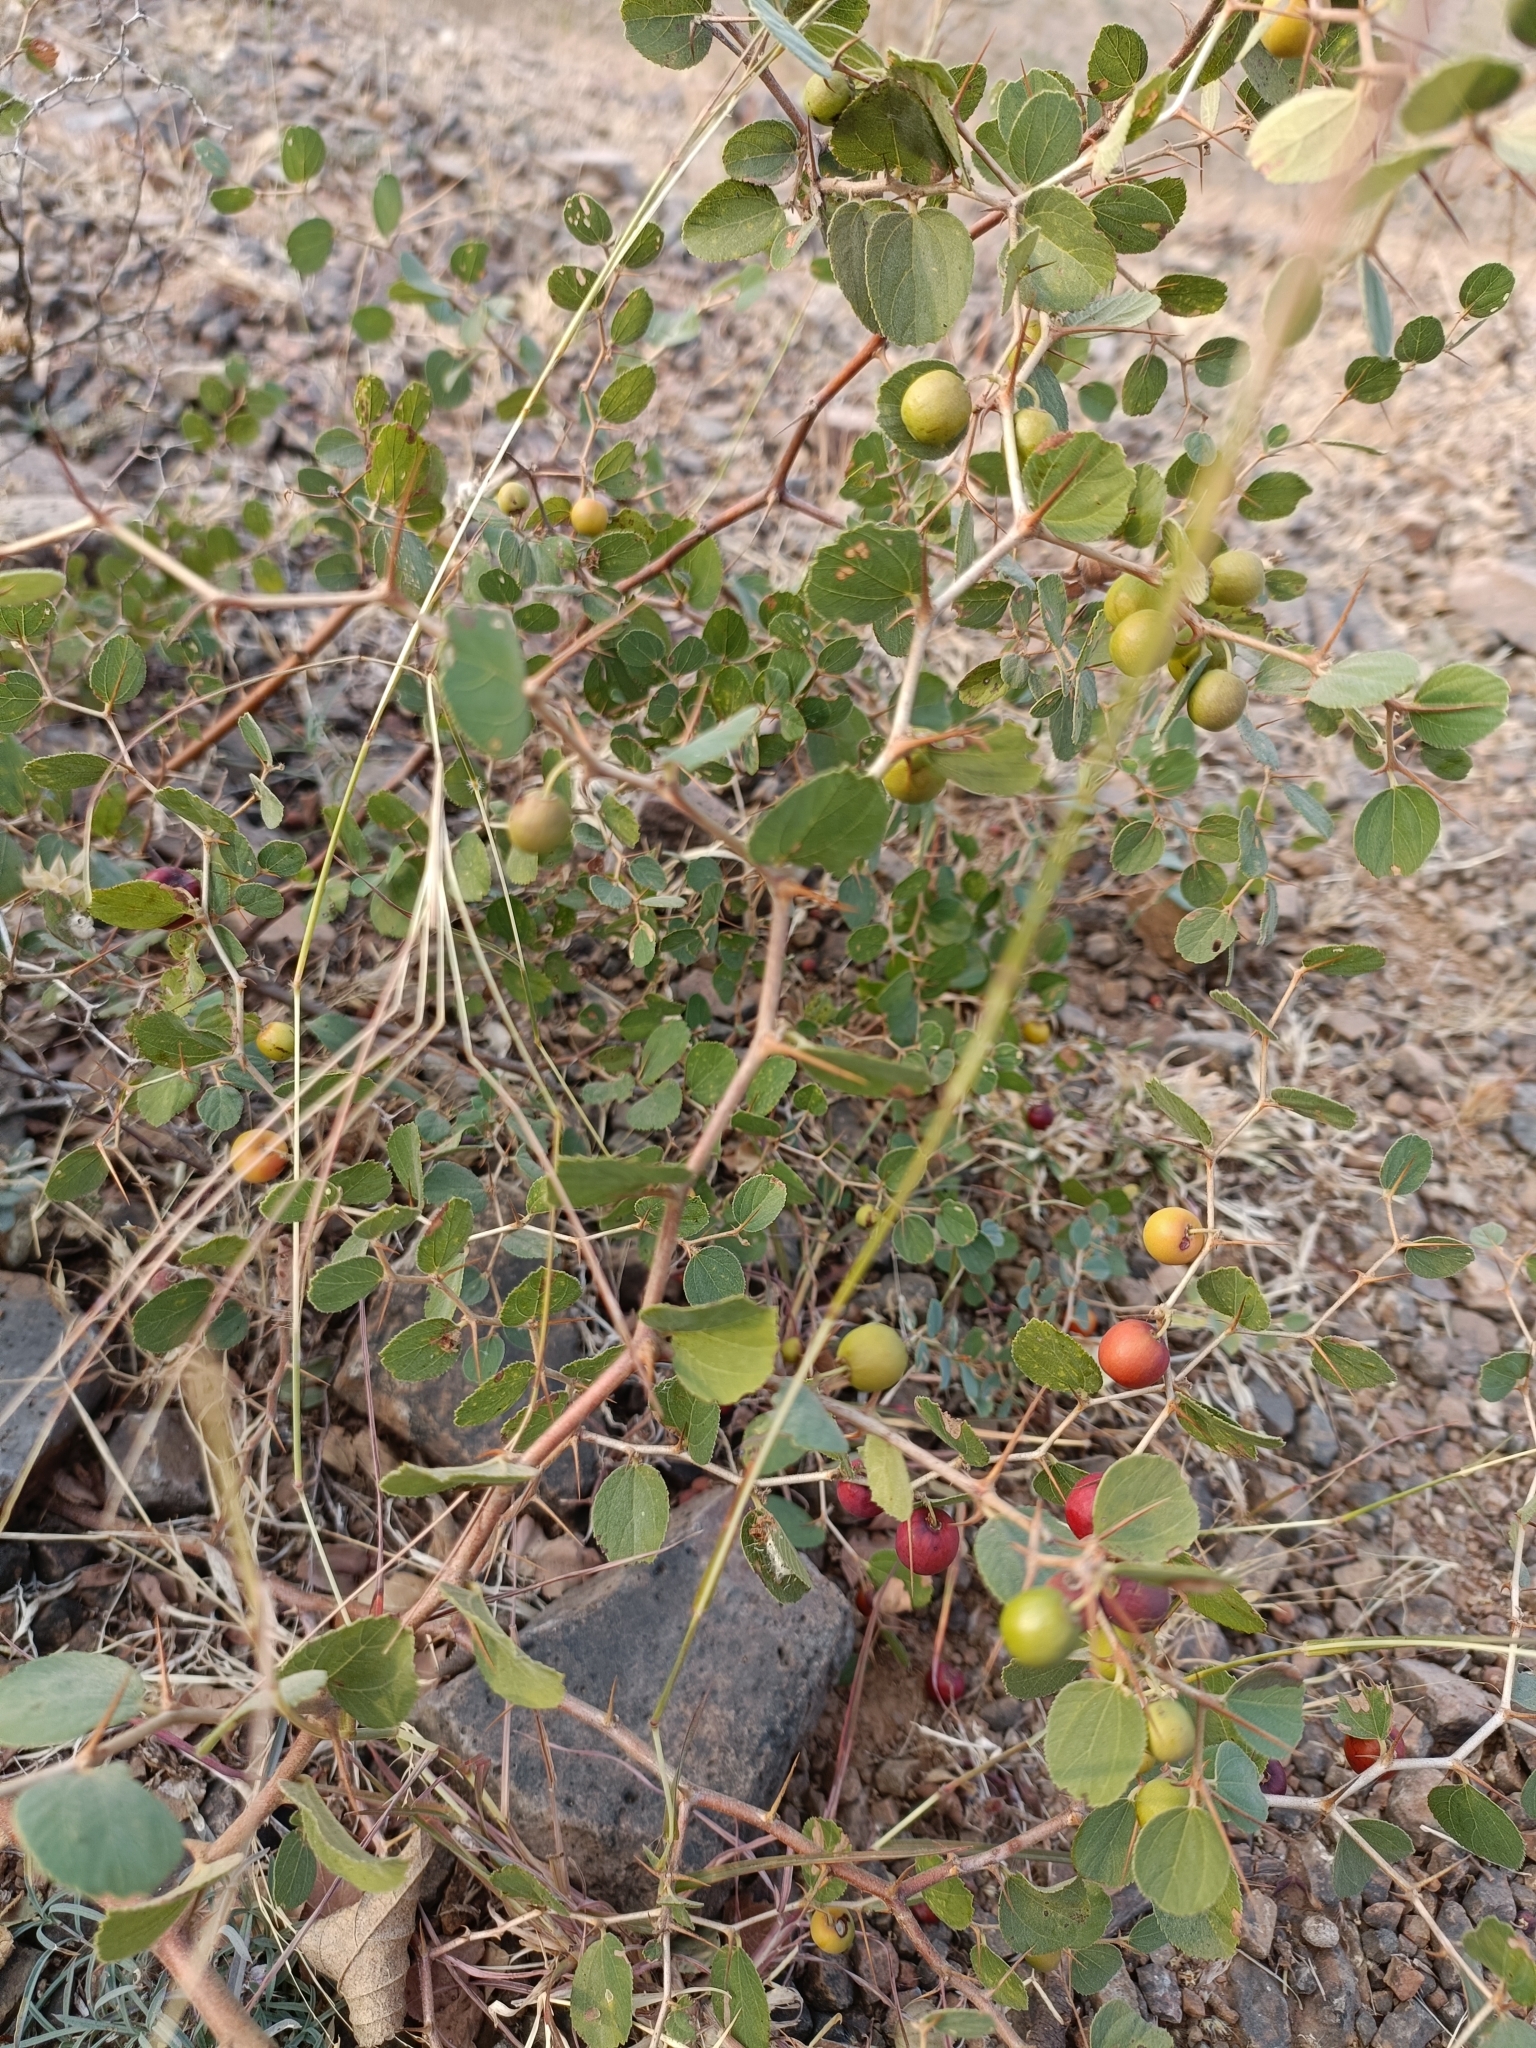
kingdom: Plantae
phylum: Tracheophyta
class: Magnoliopsida
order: Rosales
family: Rhamnaceae
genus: Ziziphus
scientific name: Ziziphus nummularia
